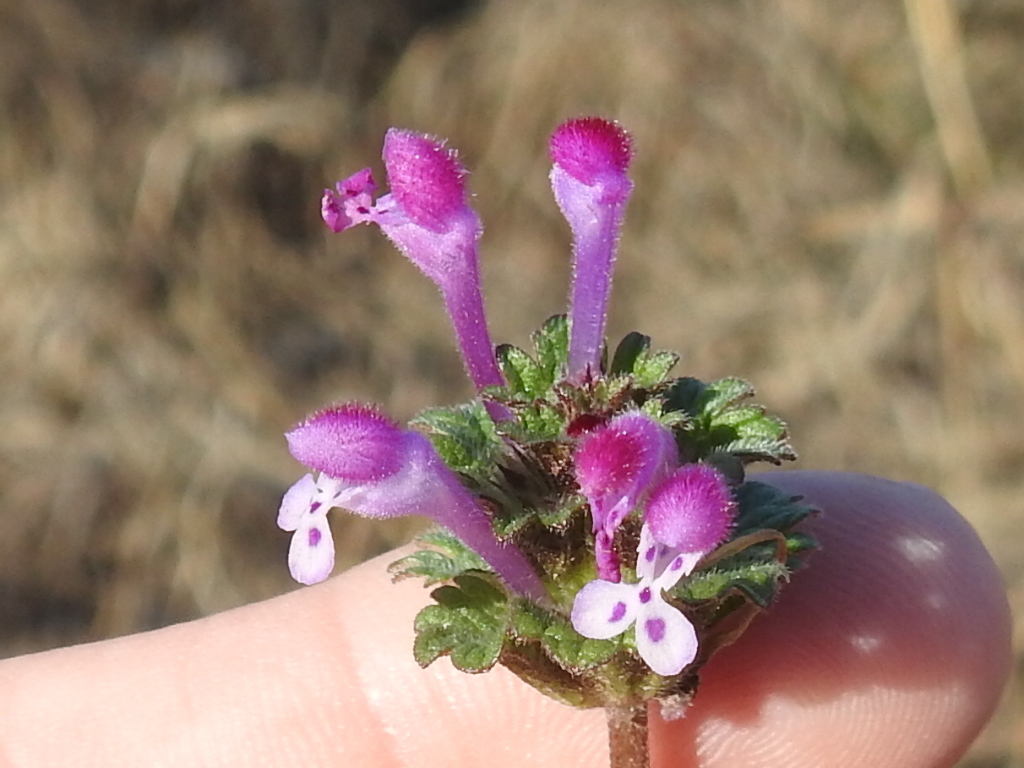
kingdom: Plantae
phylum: Tracheophyta
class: Magnoliopsida
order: Lamiales
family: Lamiaceae
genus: Lamium
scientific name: Lamium amplexicaule
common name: Henbit dead-nettle
